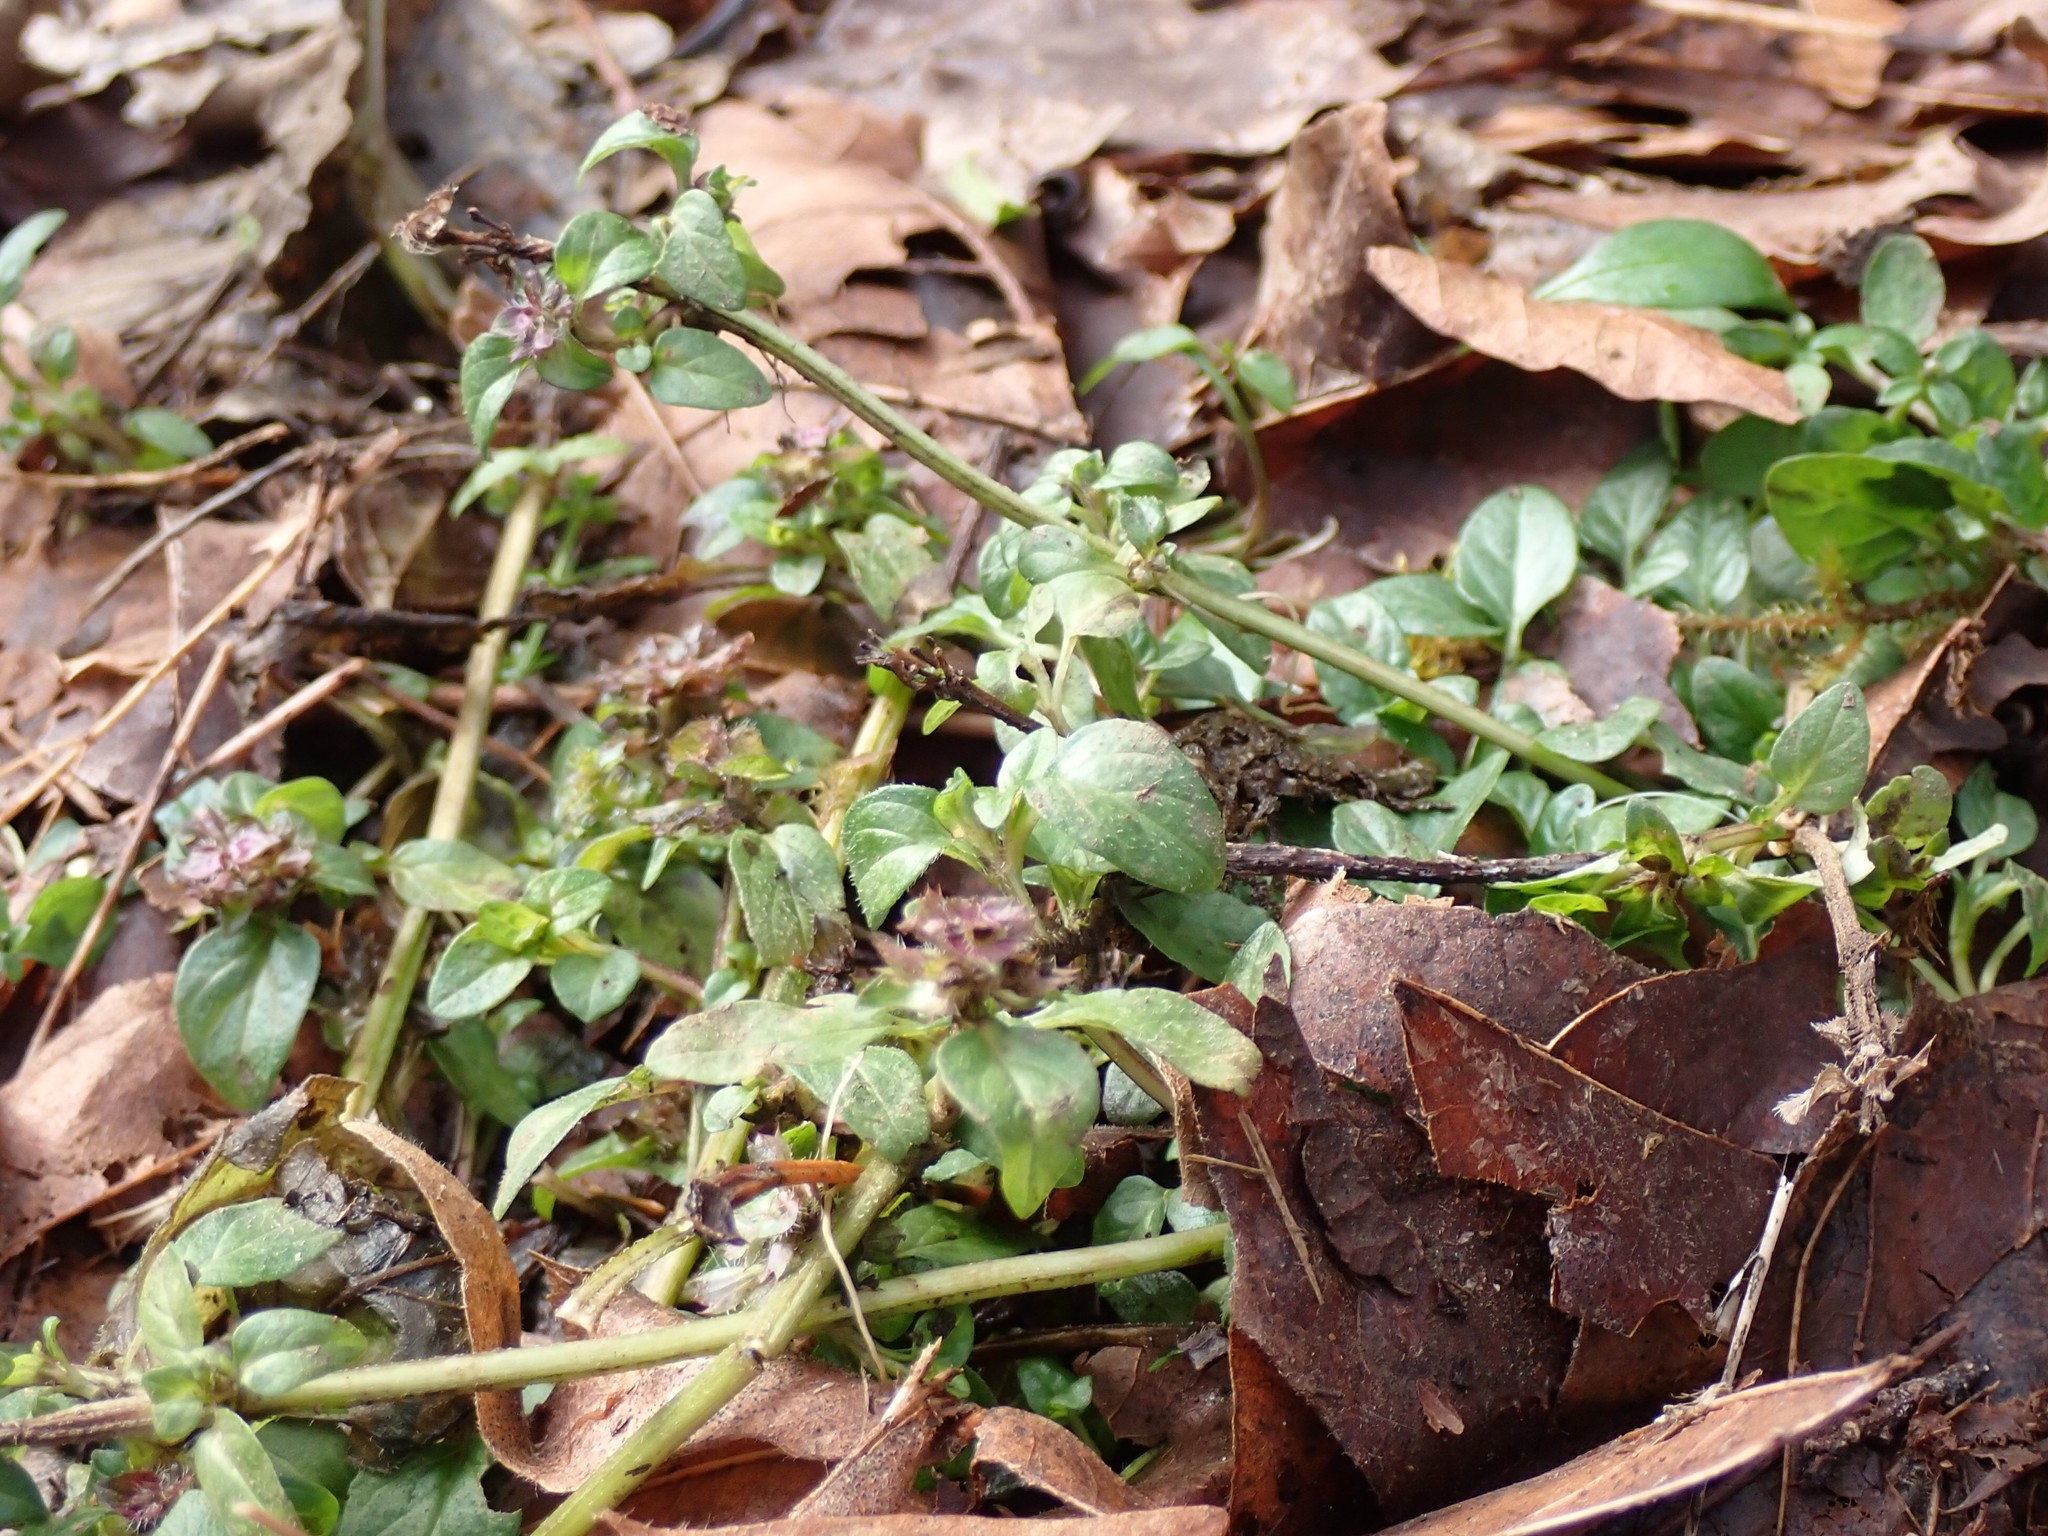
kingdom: Plantae
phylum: Tracheophyta
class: Magnoliopsida
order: Lamiales
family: Lamiaceae
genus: Prunella
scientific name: Prunella vulgaris
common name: Heal-all
